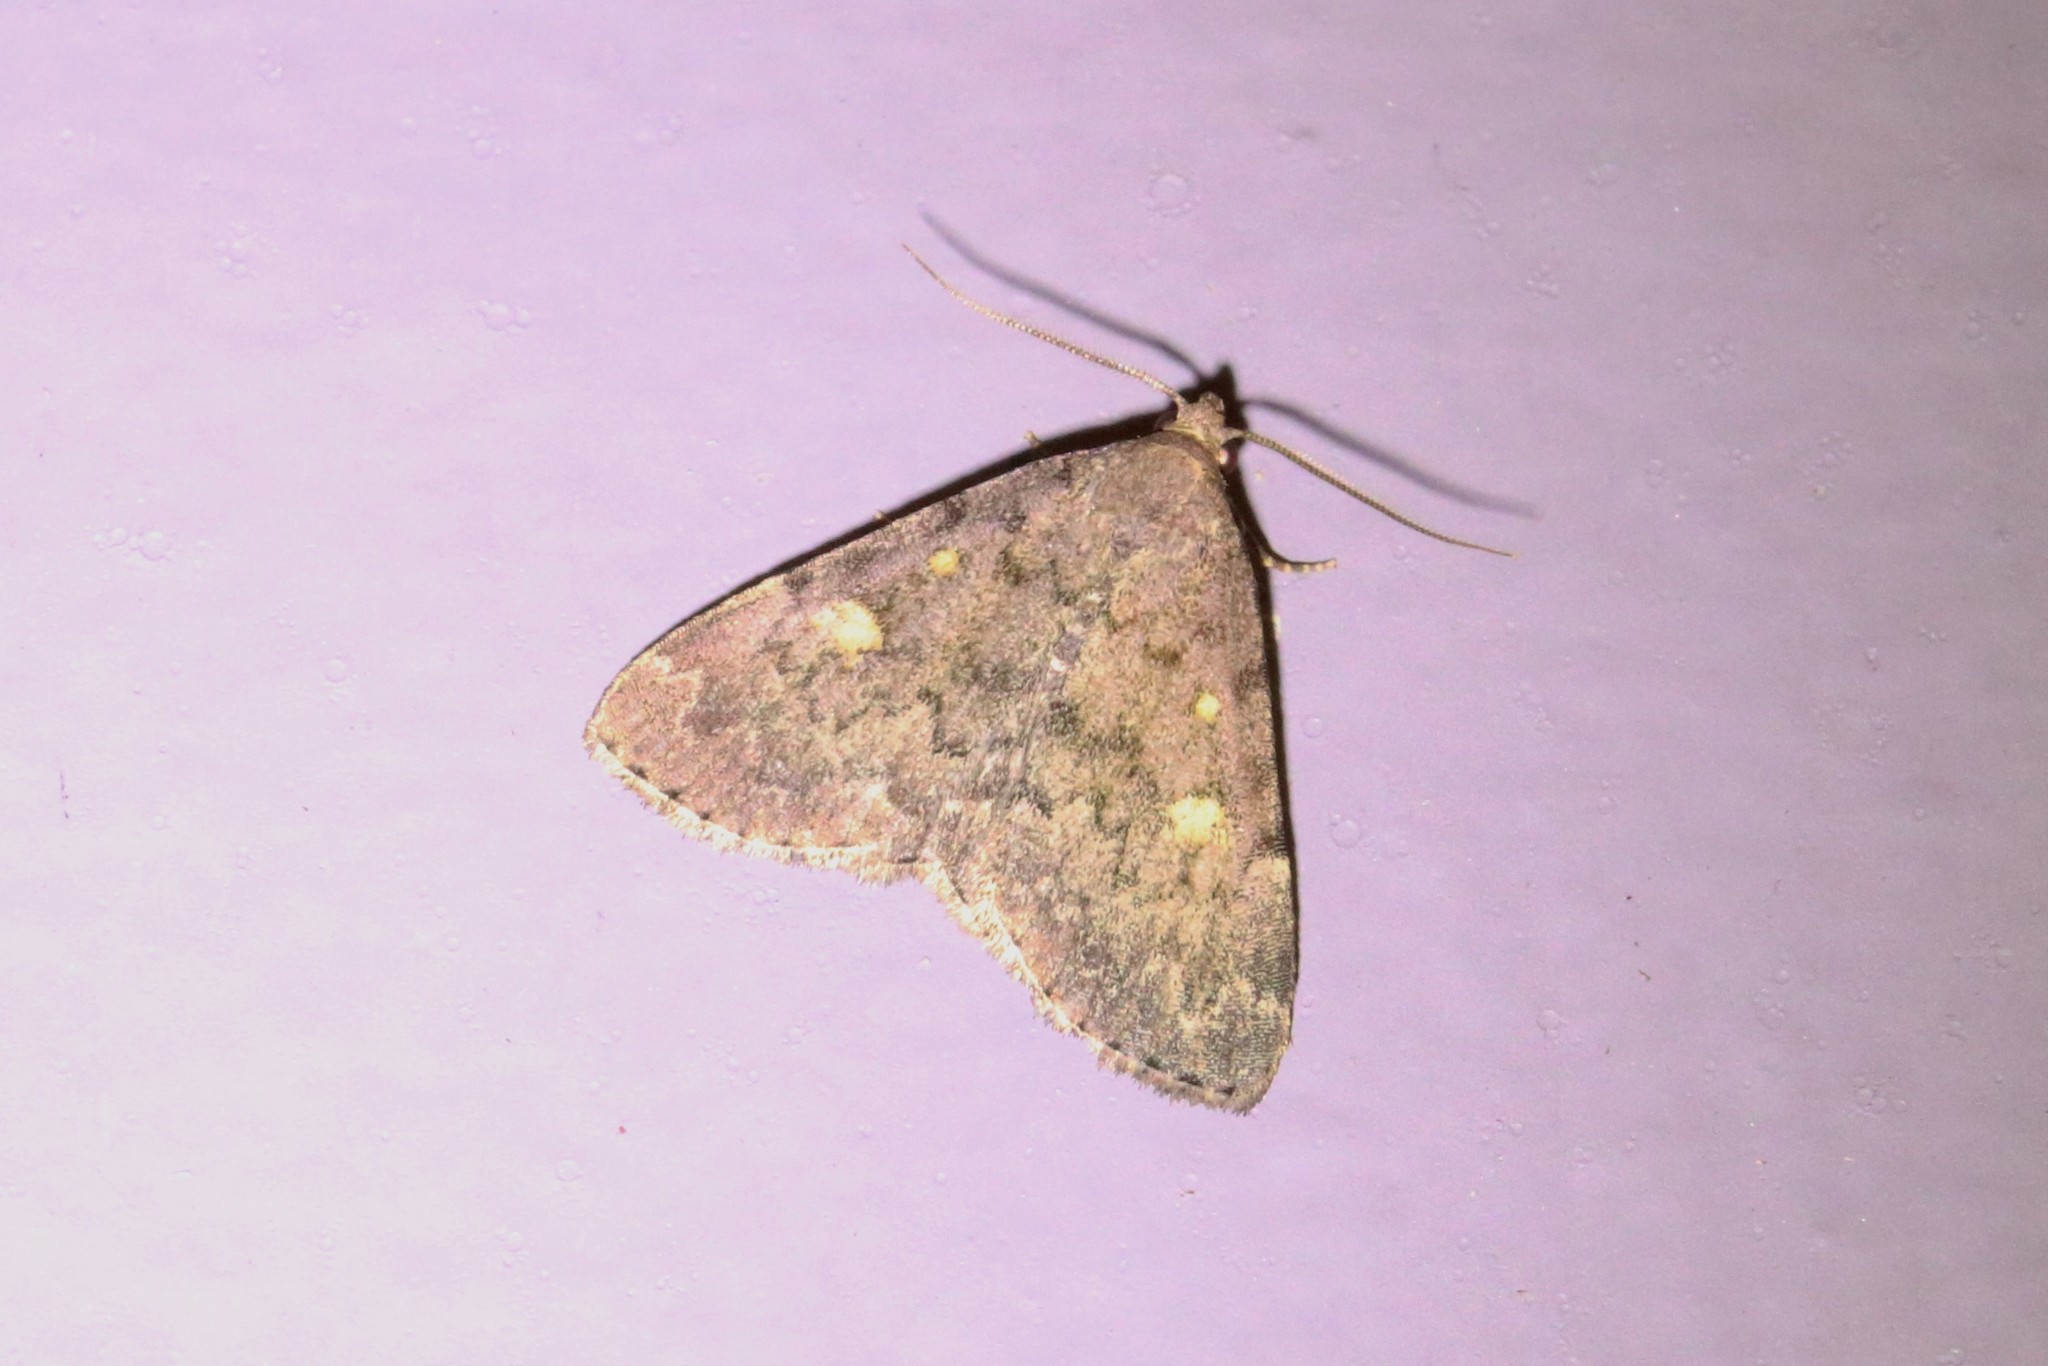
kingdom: Animalia
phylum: Arthropoda
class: Insecta
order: Lepidoptera
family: Erebidae
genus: Idia
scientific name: Idia aemula
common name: Common idia moth
